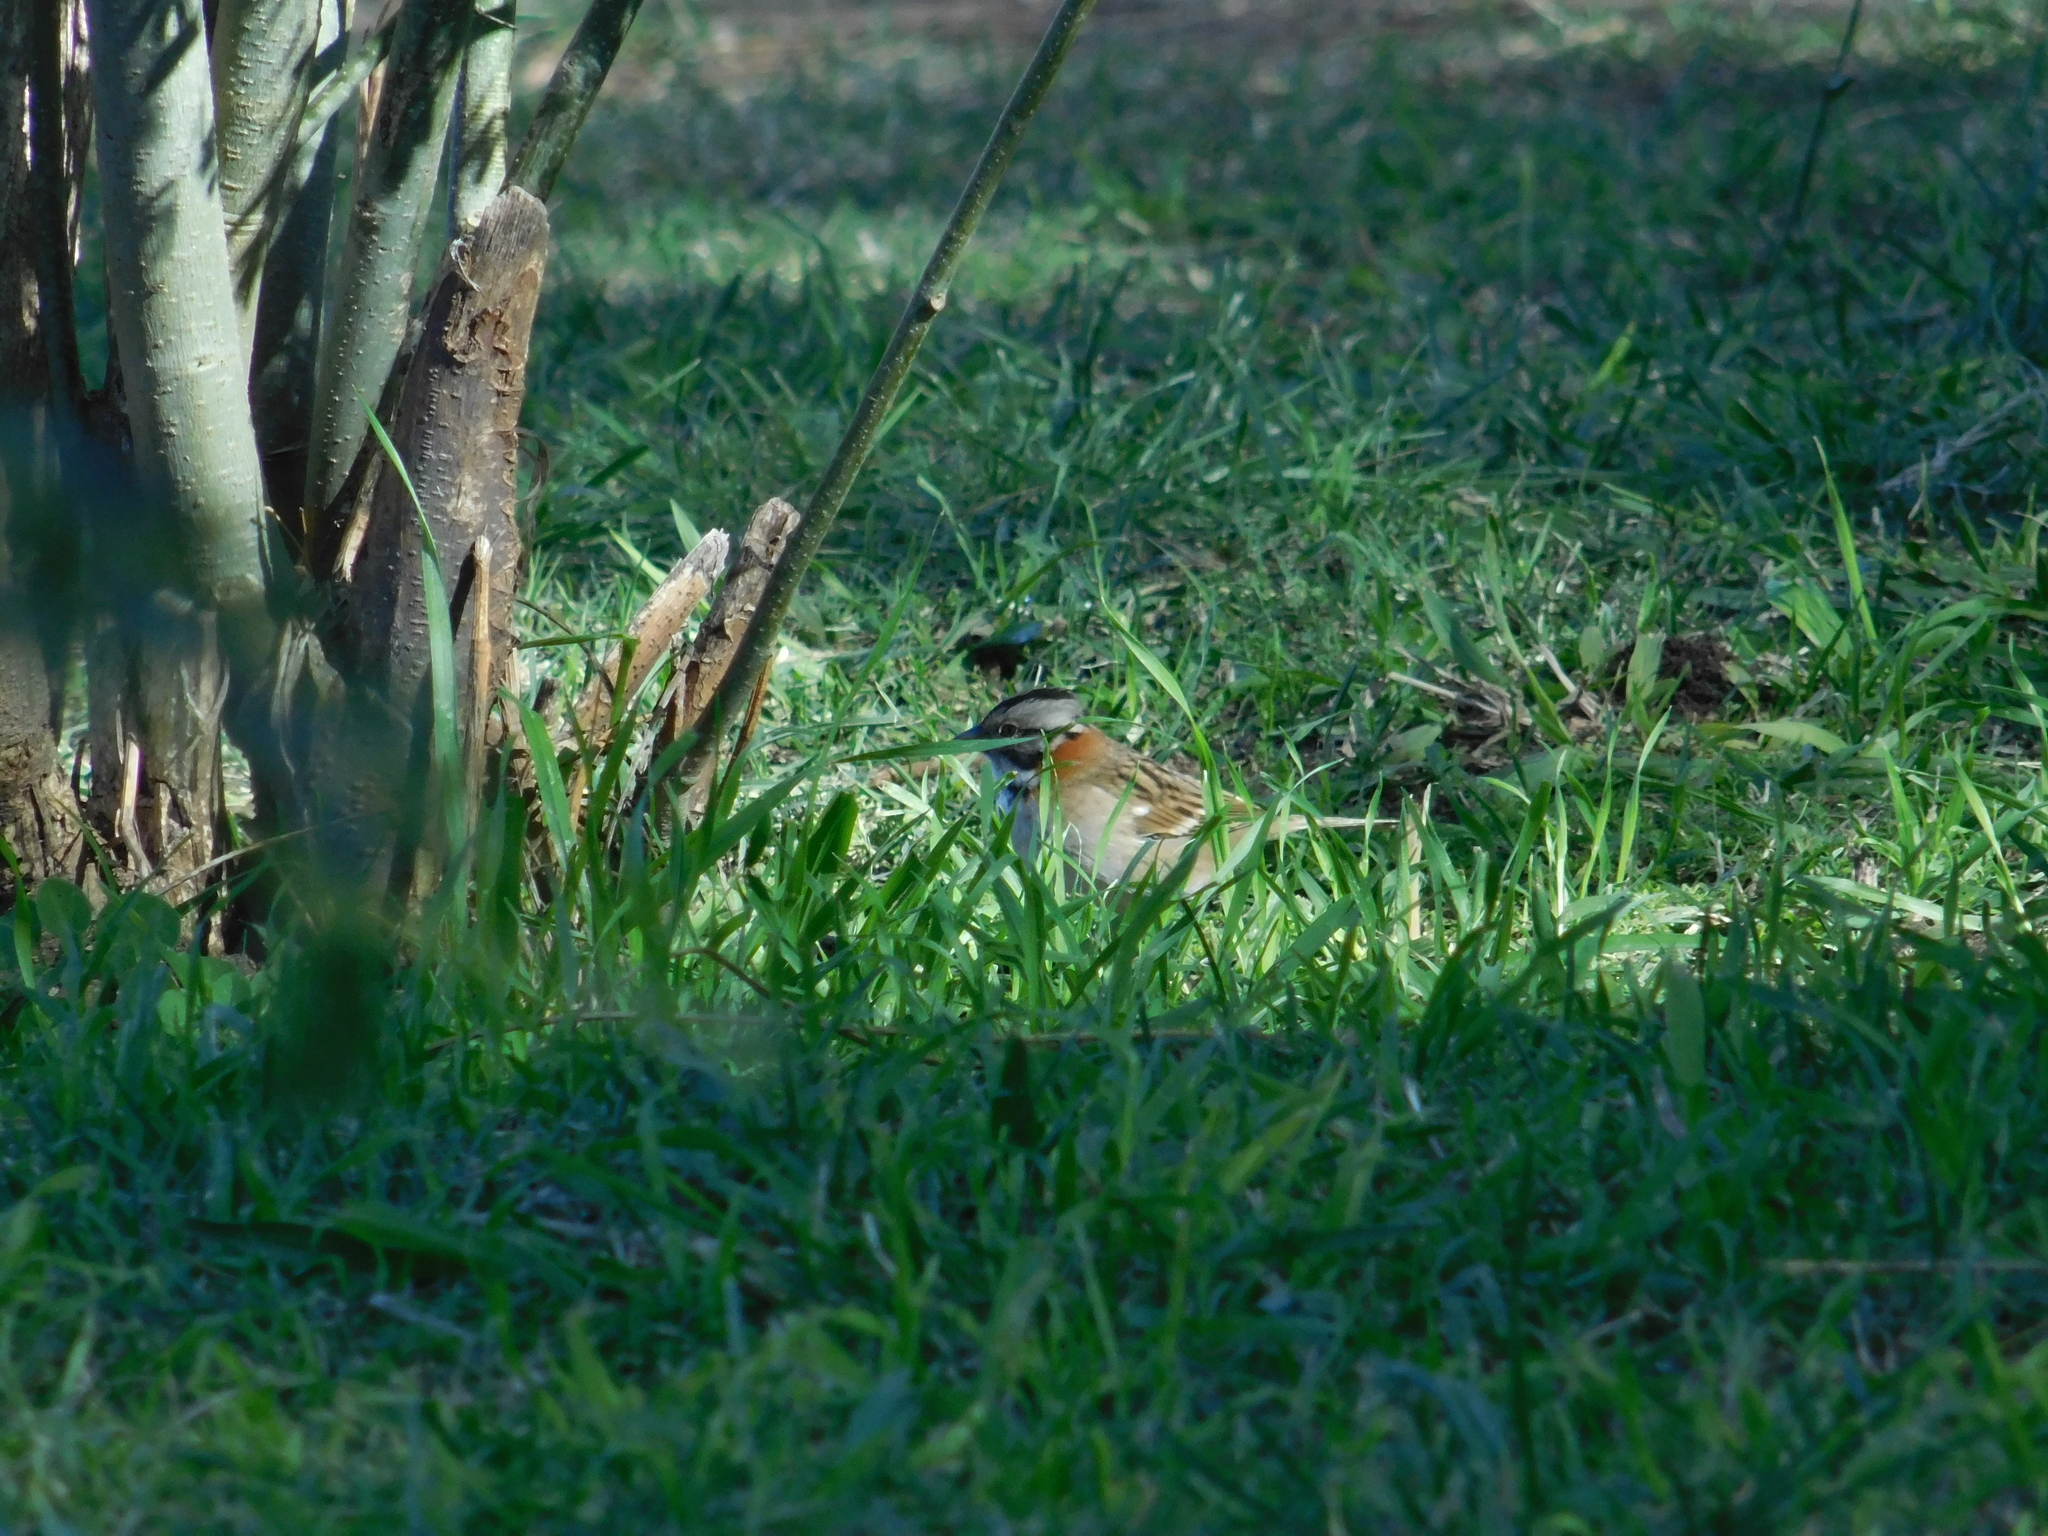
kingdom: Animalia
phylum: Chordata
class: Aves
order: Passeriformes
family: Passerellidae
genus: Zonotrichia
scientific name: Zonotrichia capensis
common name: Rufous-collared sparrow
